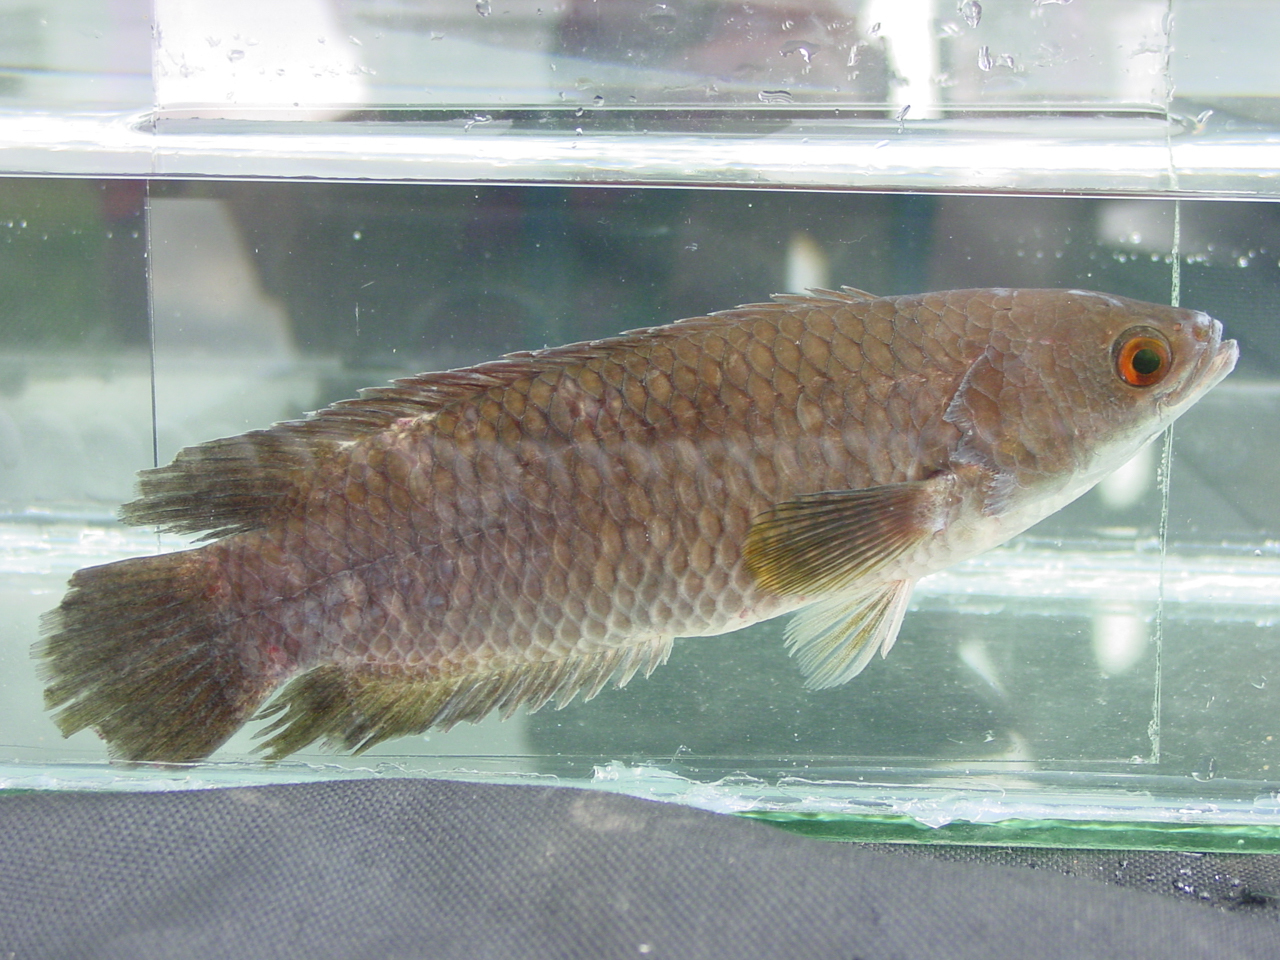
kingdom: Animalia
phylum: Chordata
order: Perciformes
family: Anabantidae
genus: Ctenopoma
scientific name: Ctenopoma gabonense
